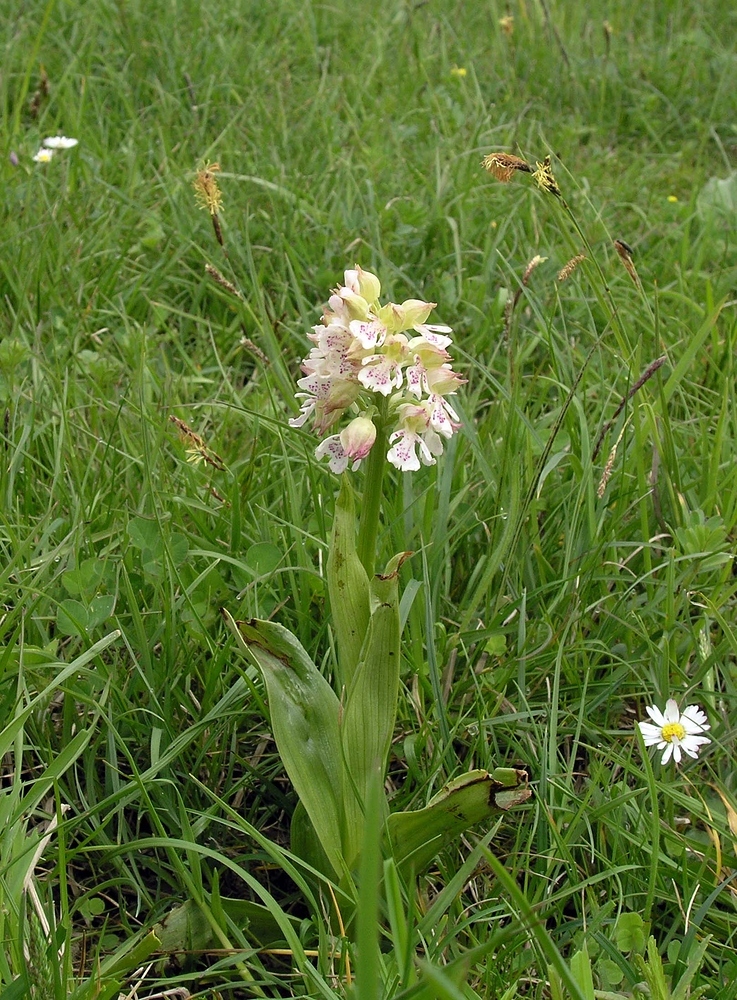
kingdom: Plantae
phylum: Tracheophyta
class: Liliopsida
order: Asparagales
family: Orchidaceae
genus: Orchis
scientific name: Orchis purpurea
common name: Lady orchid
